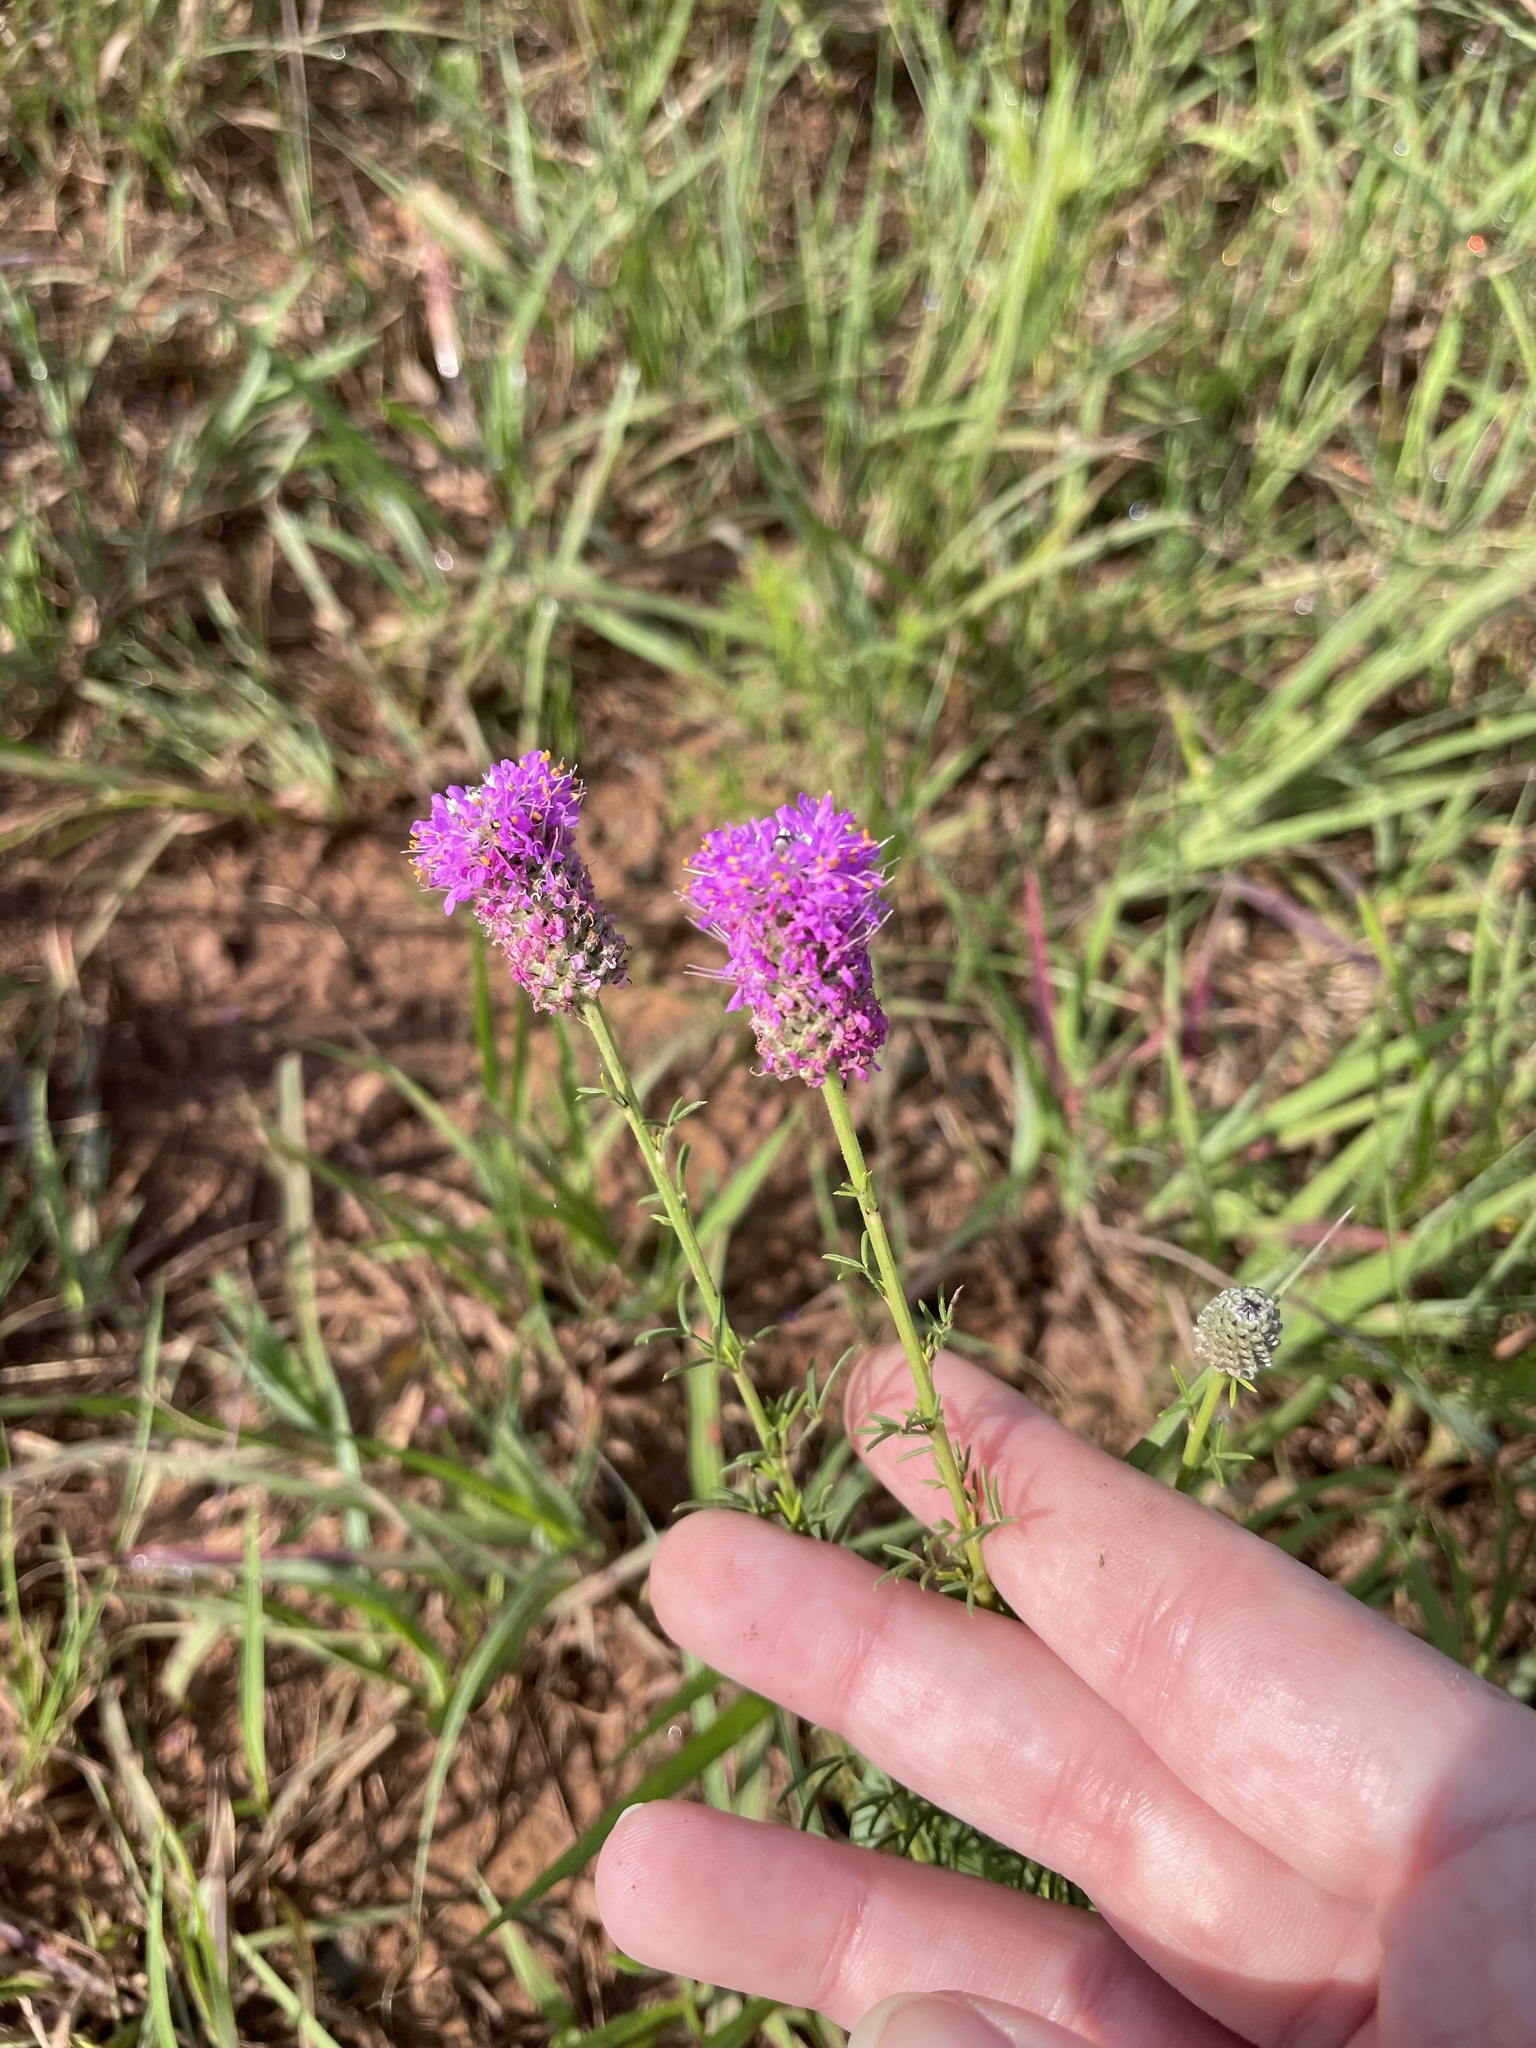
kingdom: Plantae
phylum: Tracheophyta
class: Magnoliopsida
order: Fabales
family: Fabaceae
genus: Dalea
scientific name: Dalea purpurea
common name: Purple prairie-clover
